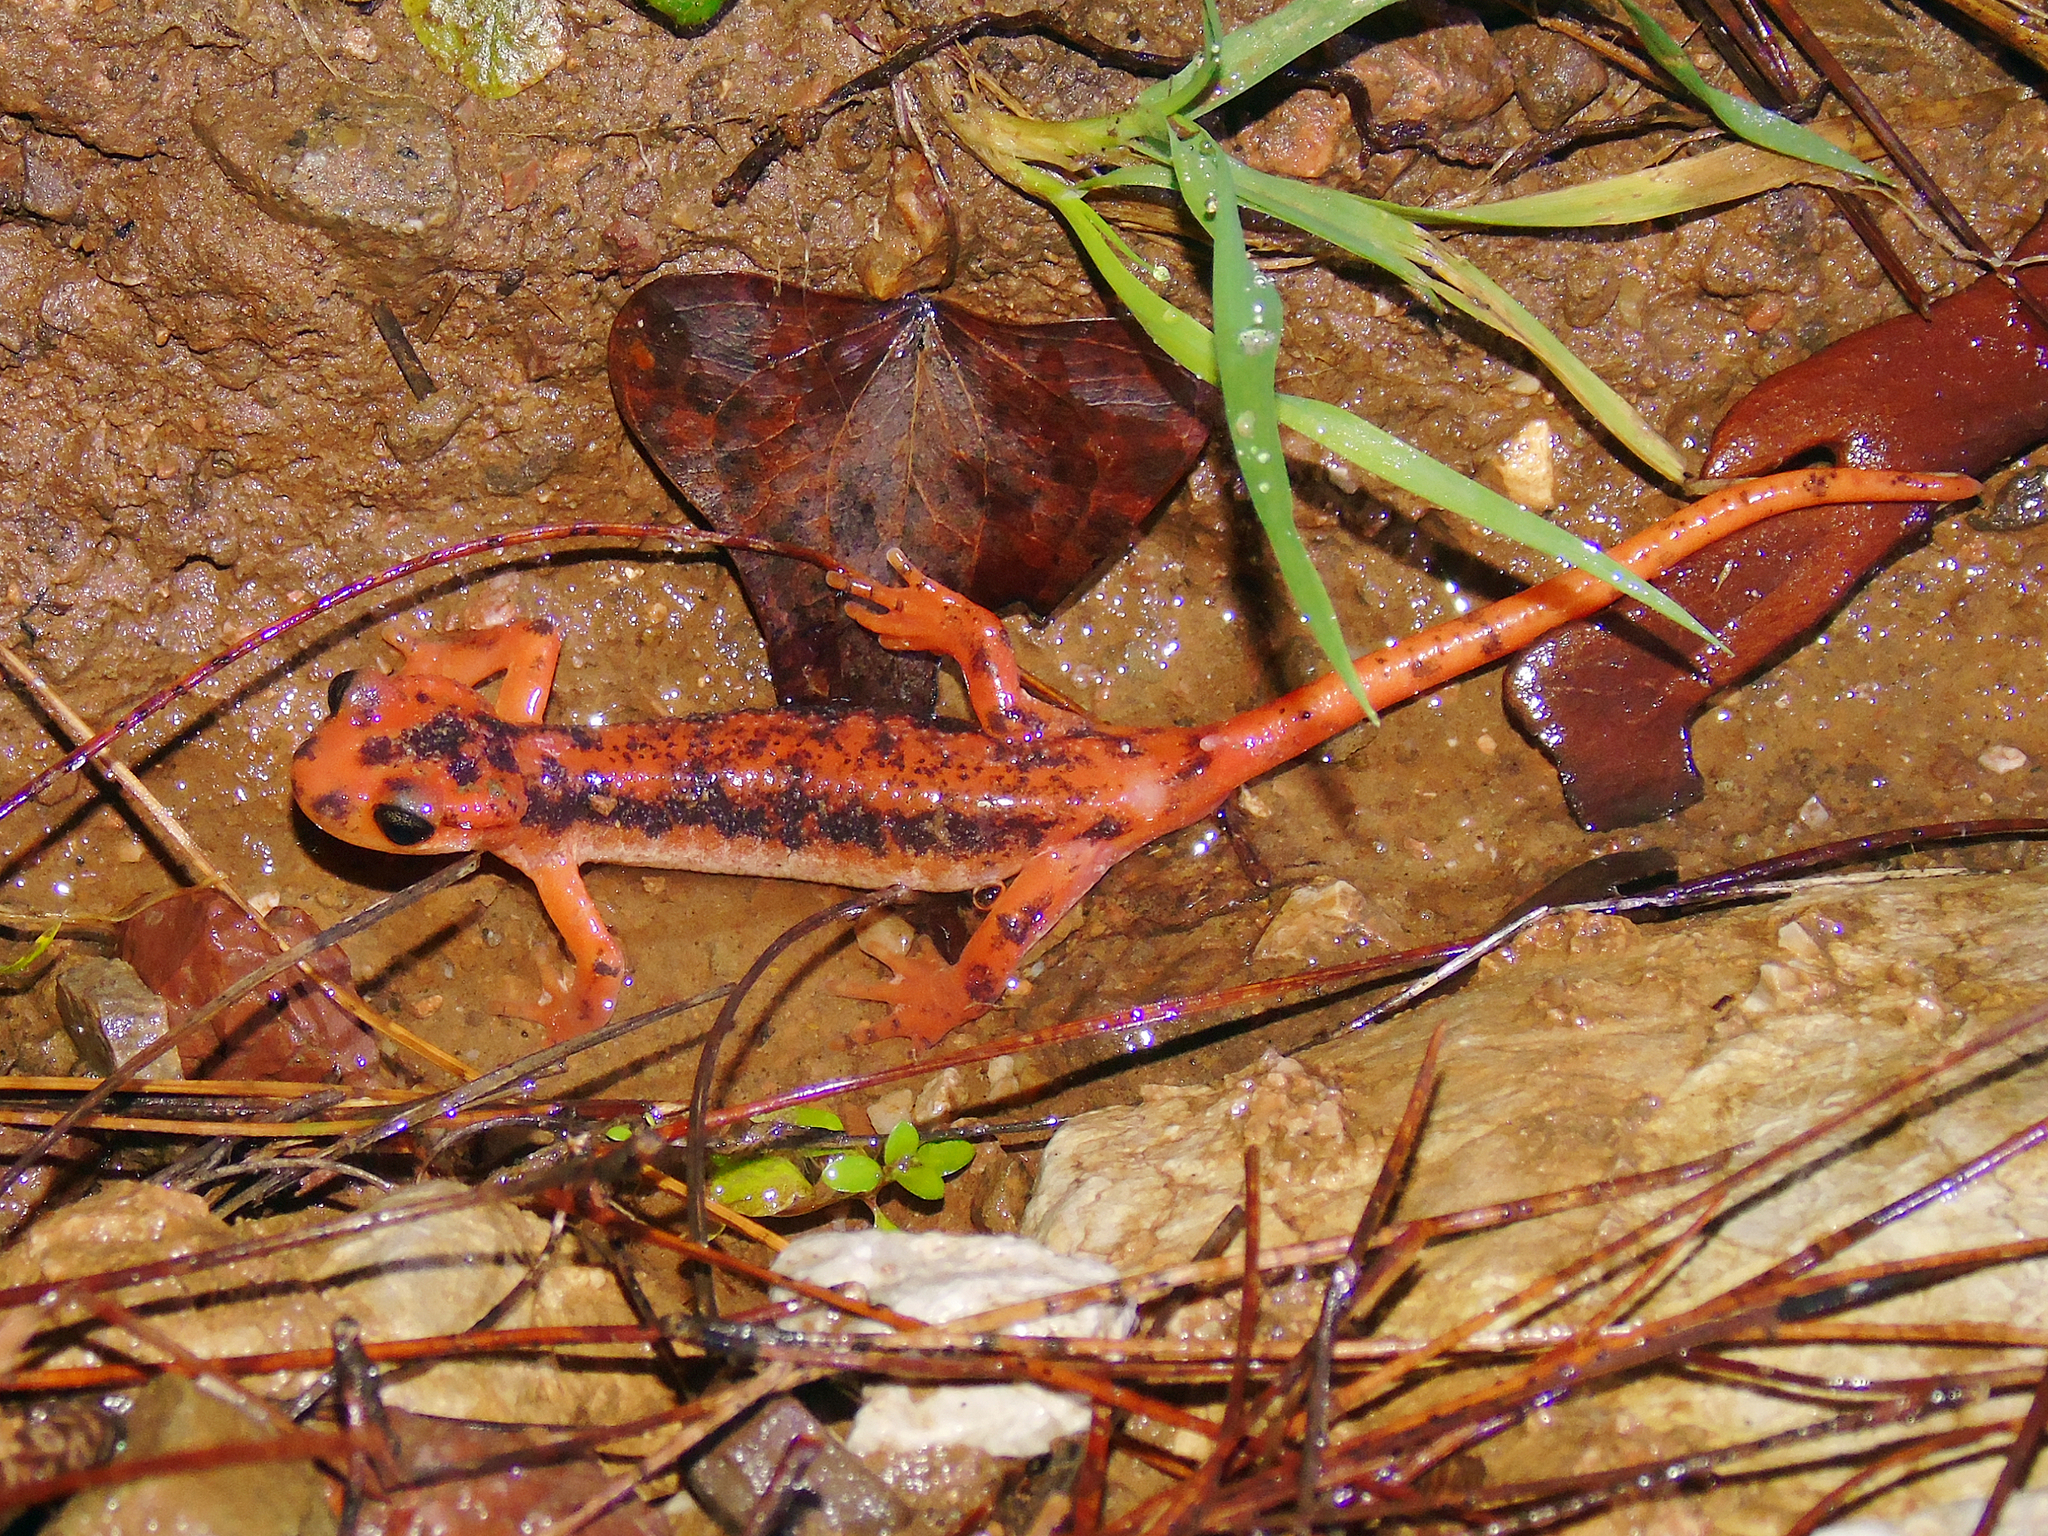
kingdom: Animalia
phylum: Chordata
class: Amphibia
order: Caudata
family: Salamandridae
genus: Lyciasalamandra
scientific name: Lyciasalamandra fazilae
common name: Fazila's salamander
